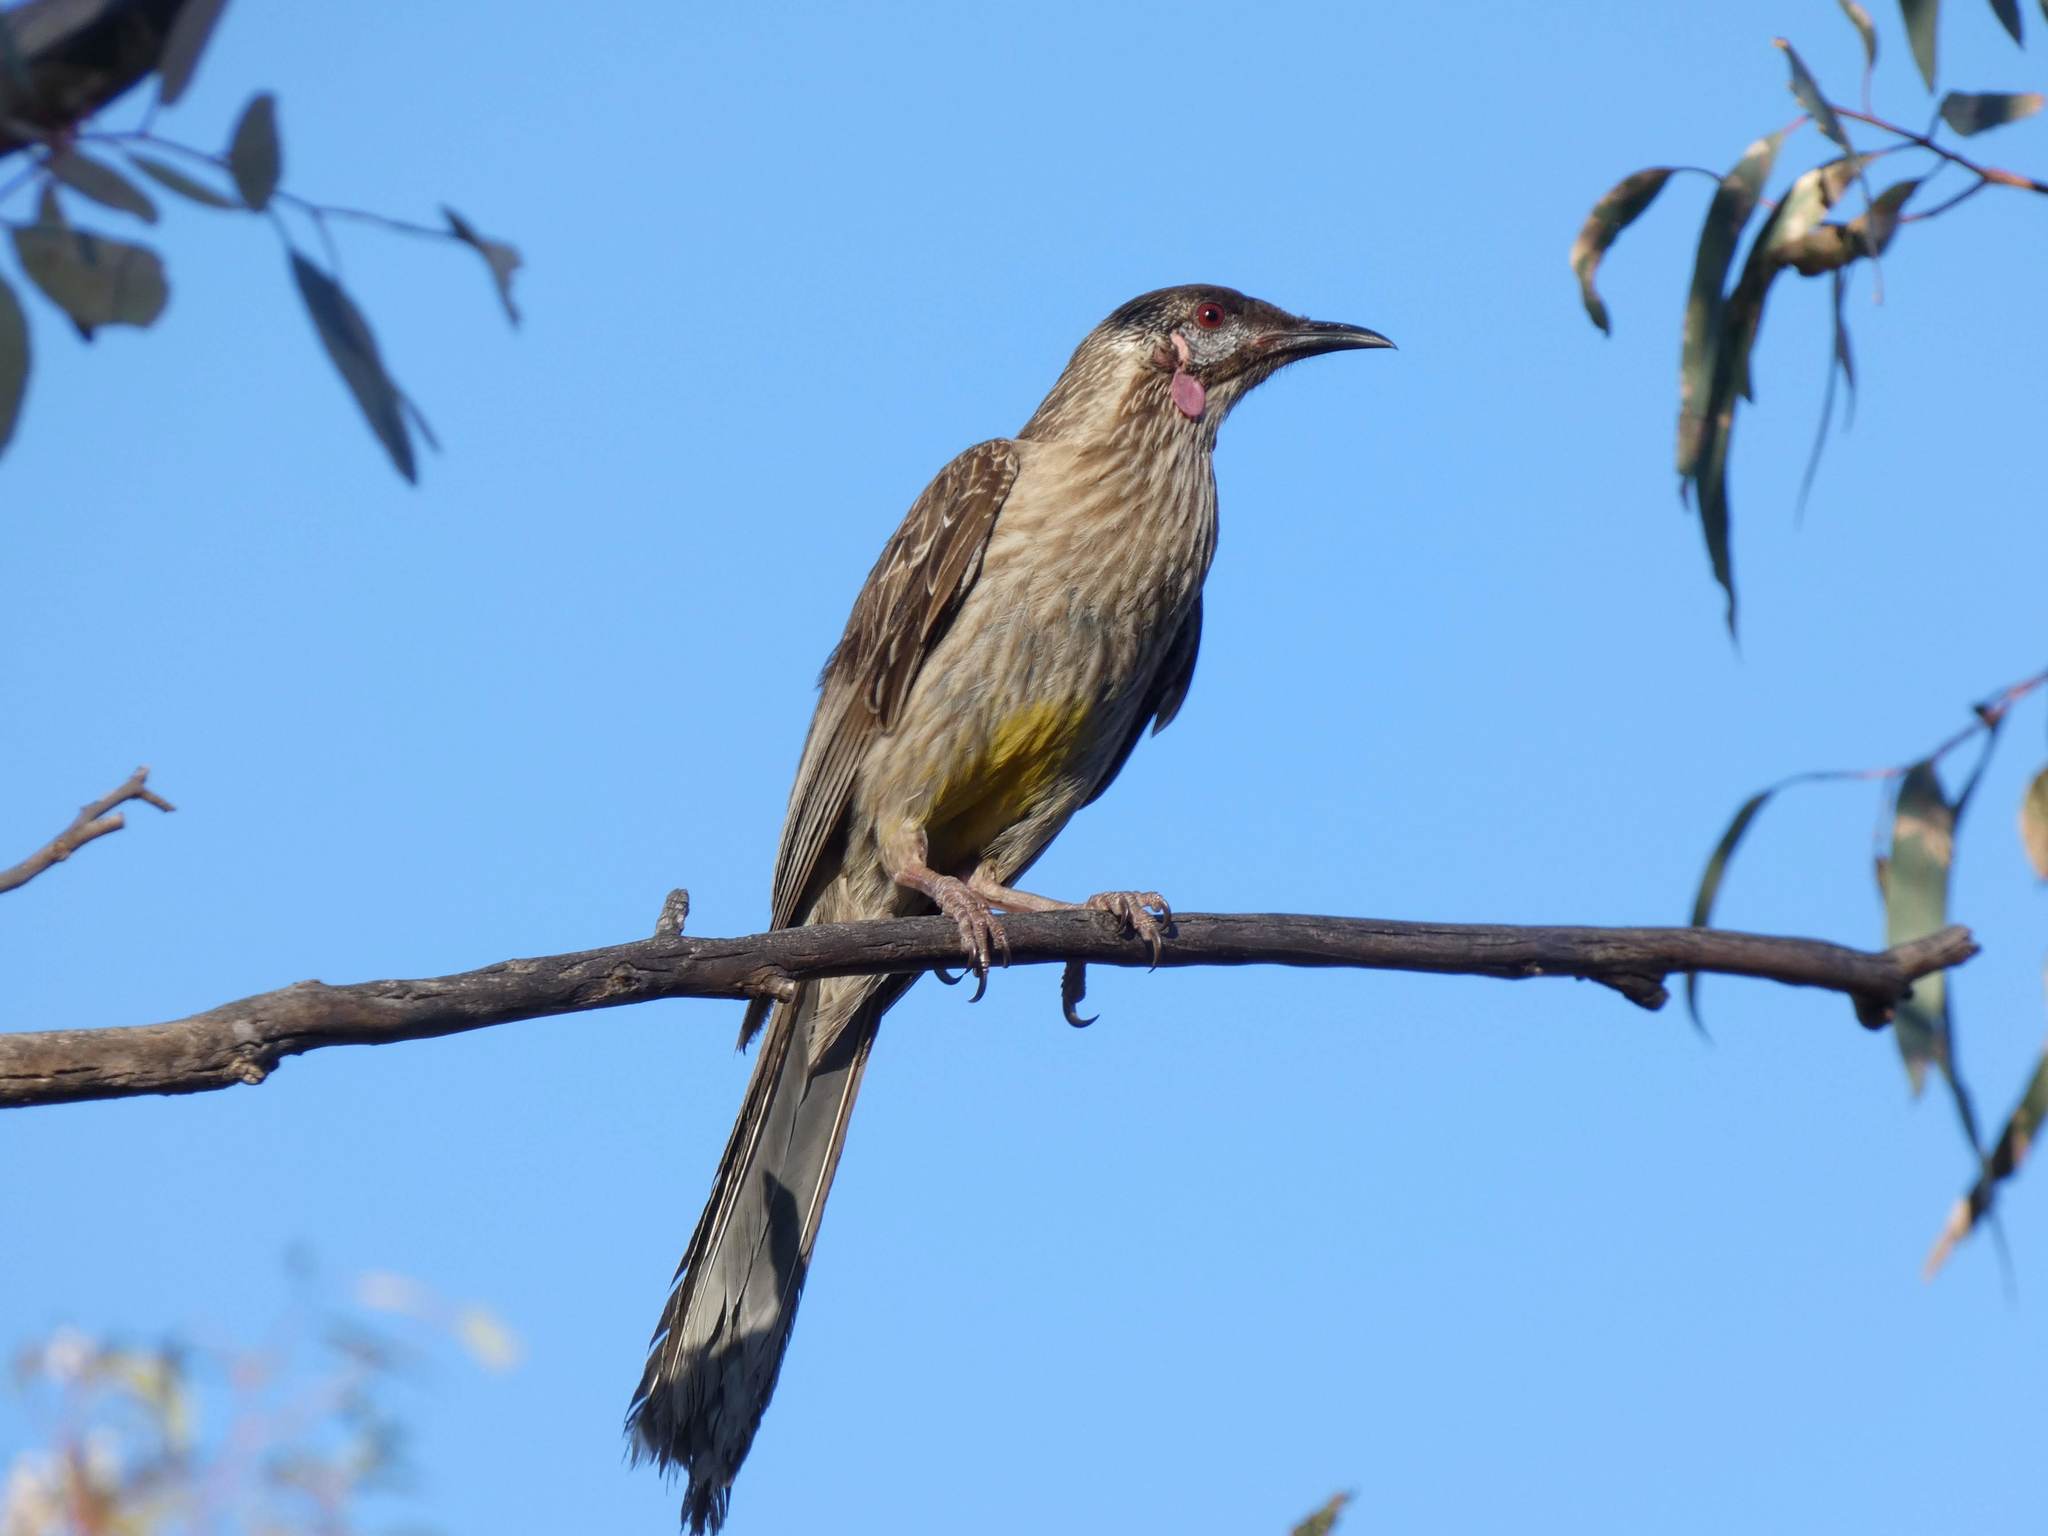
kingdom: Animalia
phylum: Chordata
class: Aves
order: Passeriformes
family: Meliphagidae
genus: Anthochaera
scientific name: Anthochaera carunculata
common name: Red wattlebird
